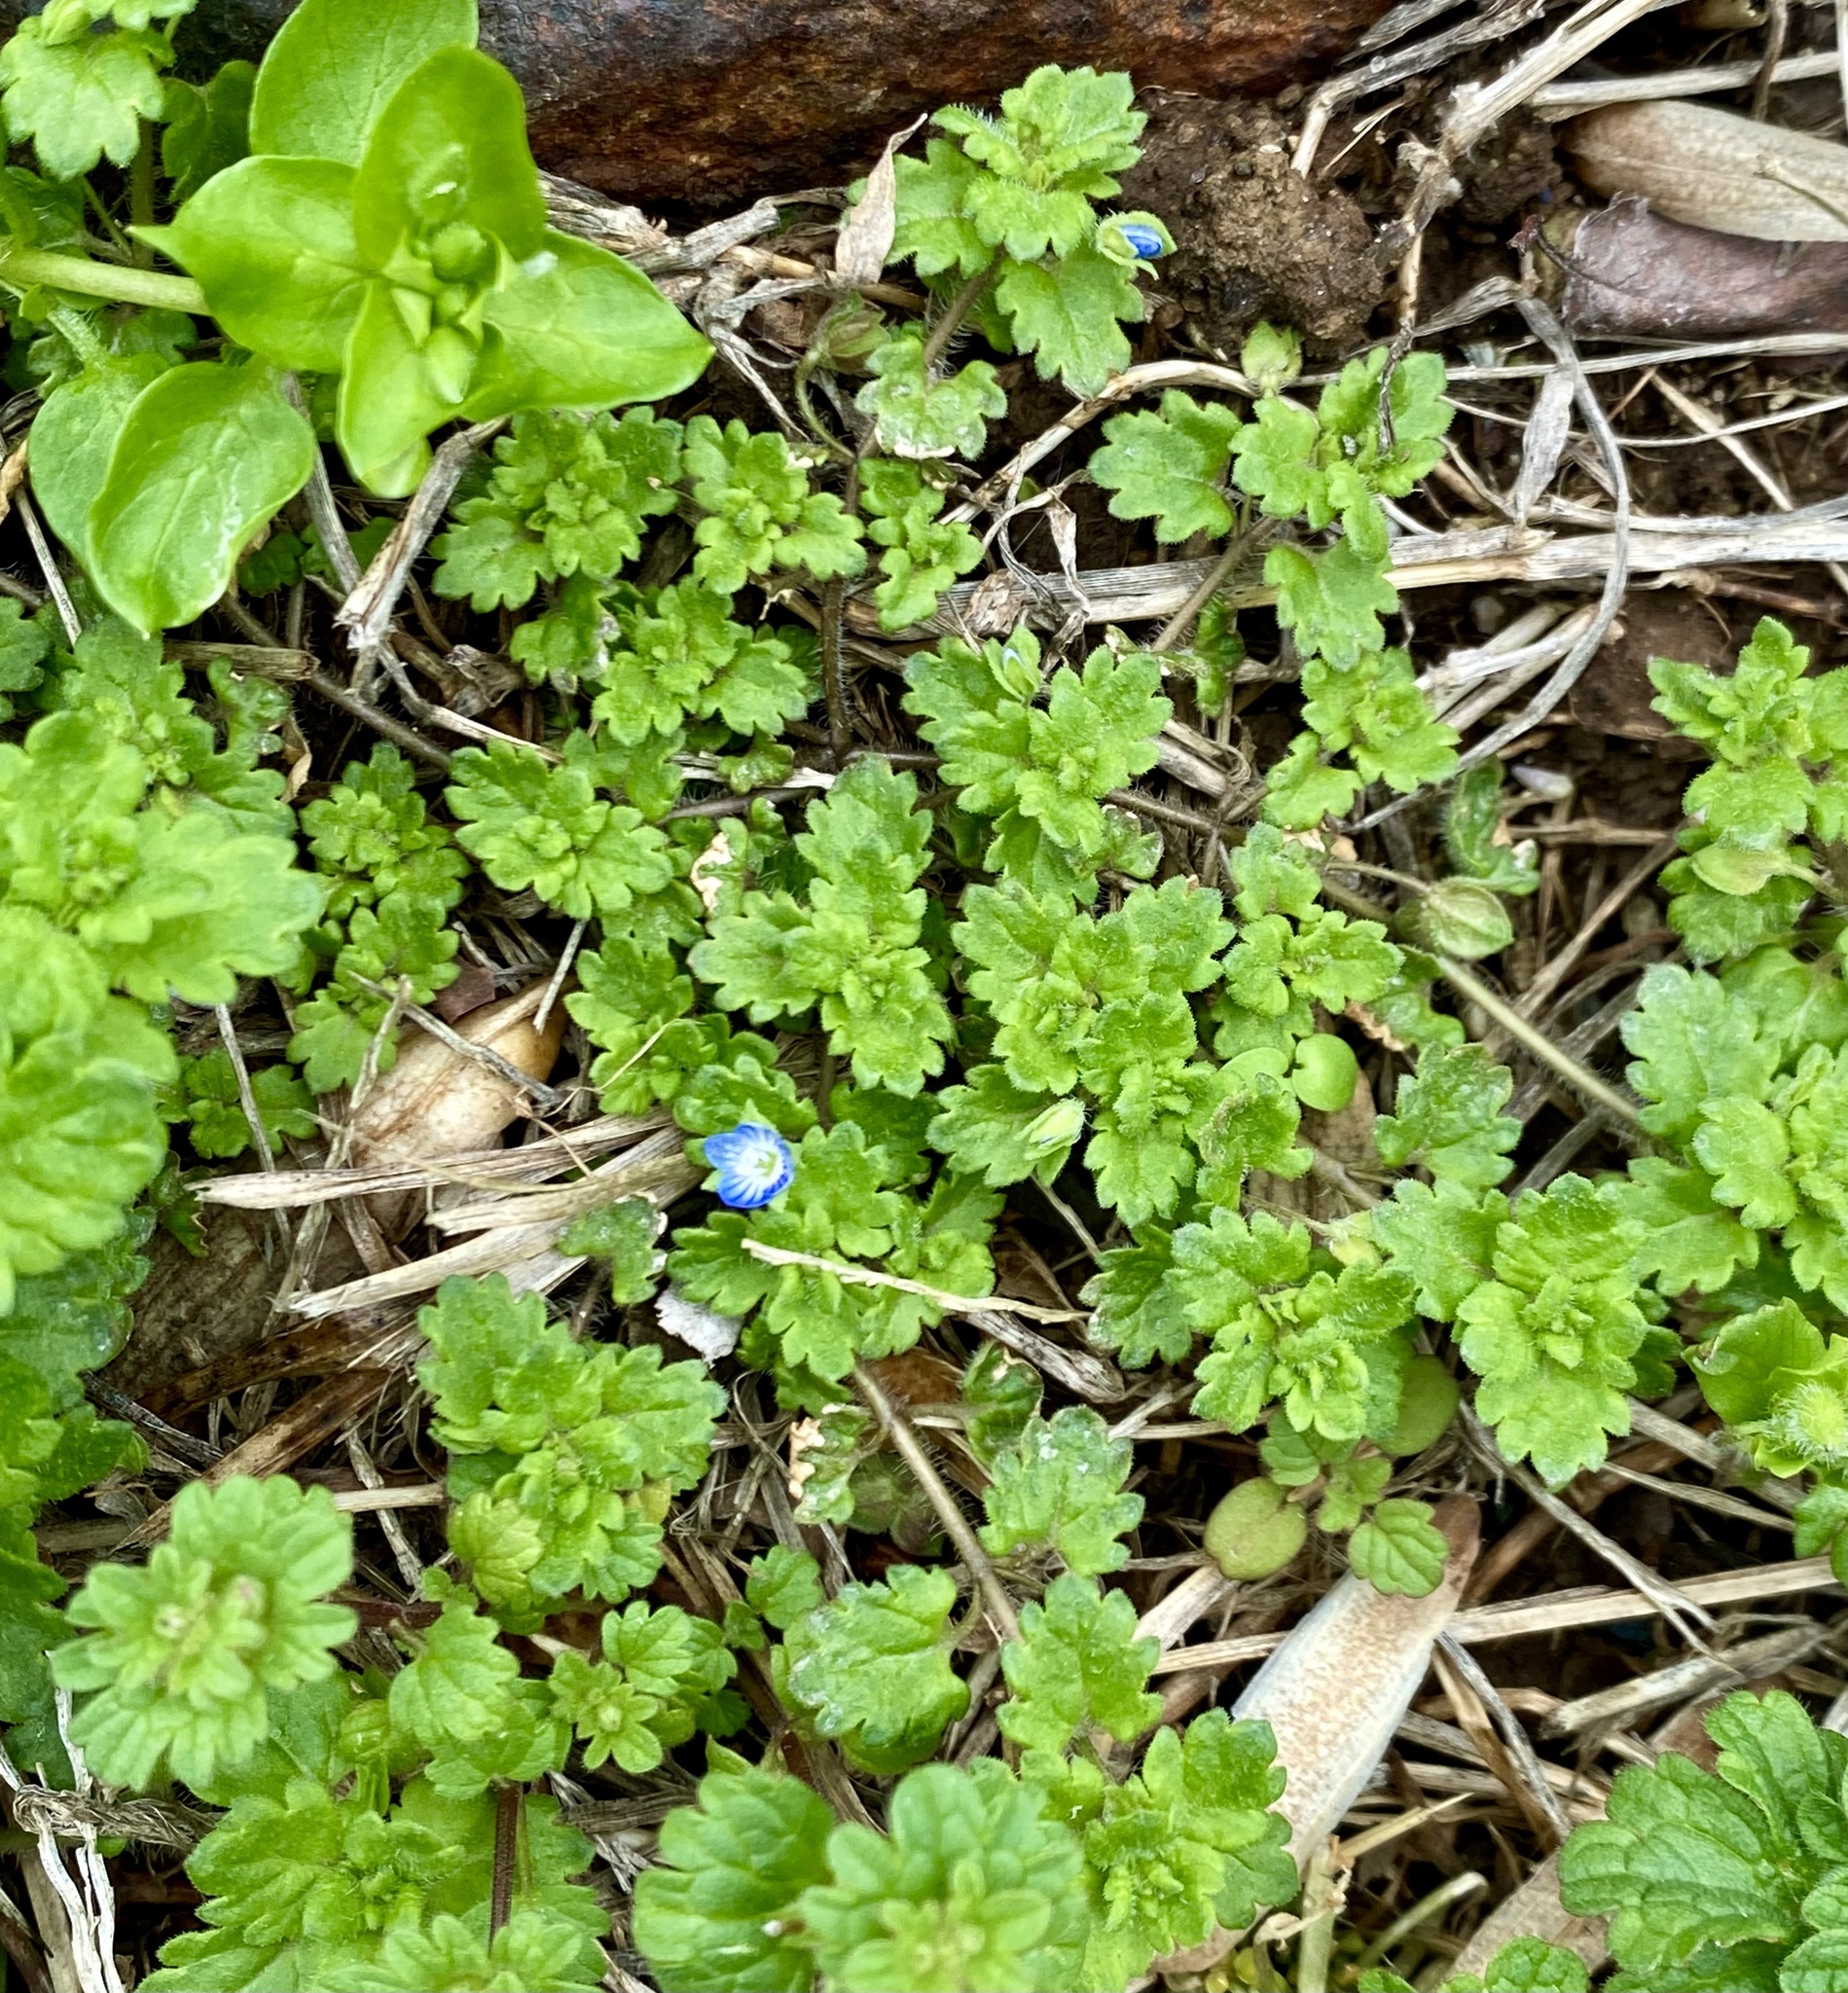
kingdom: Plantae
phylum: Tracheophyta
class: Magnoliopsida
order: Lamiales
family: Plantaginaceae
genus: Veronica
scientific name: Veronica polita
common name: Grey field-speedwell
